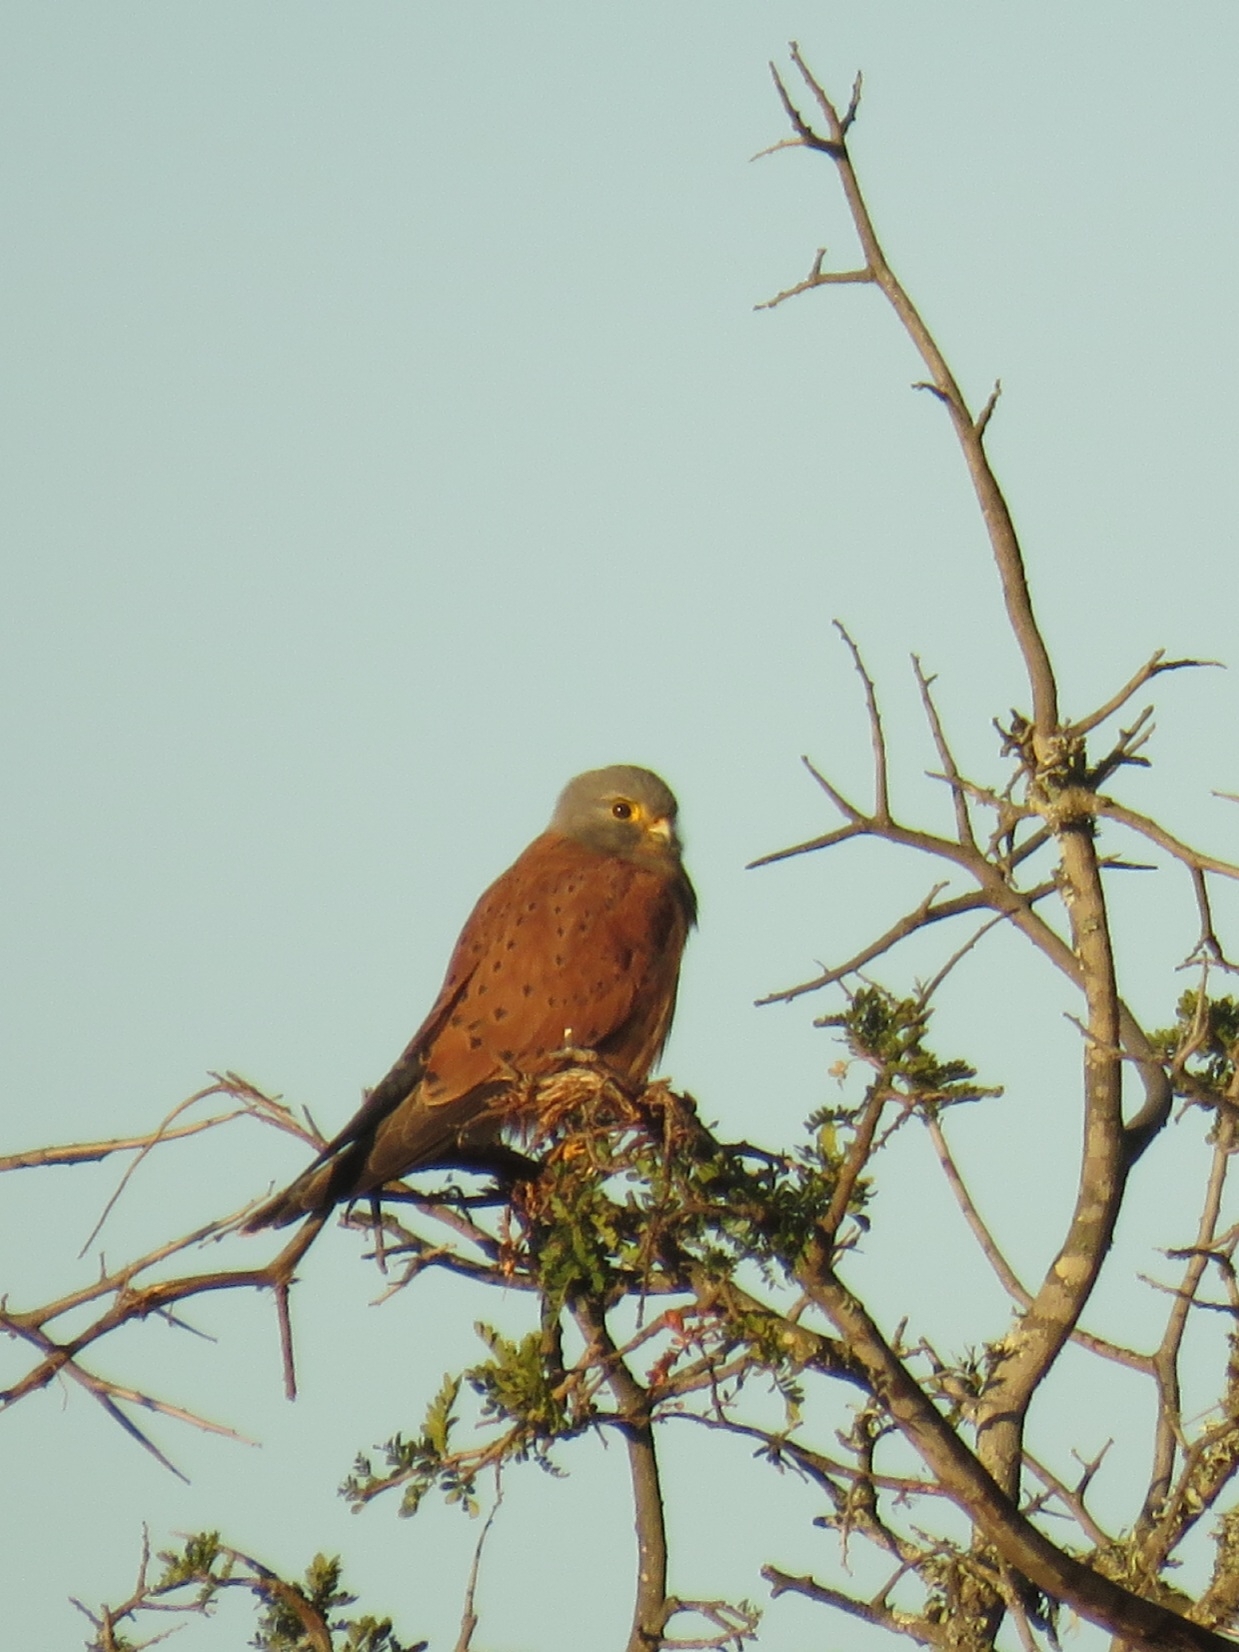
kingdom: Animalia
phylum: Chordata
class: Aves
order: Falconiformes
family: Falconidae
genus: Falco
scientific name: Falco rupicolus
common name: Rock kestrel
